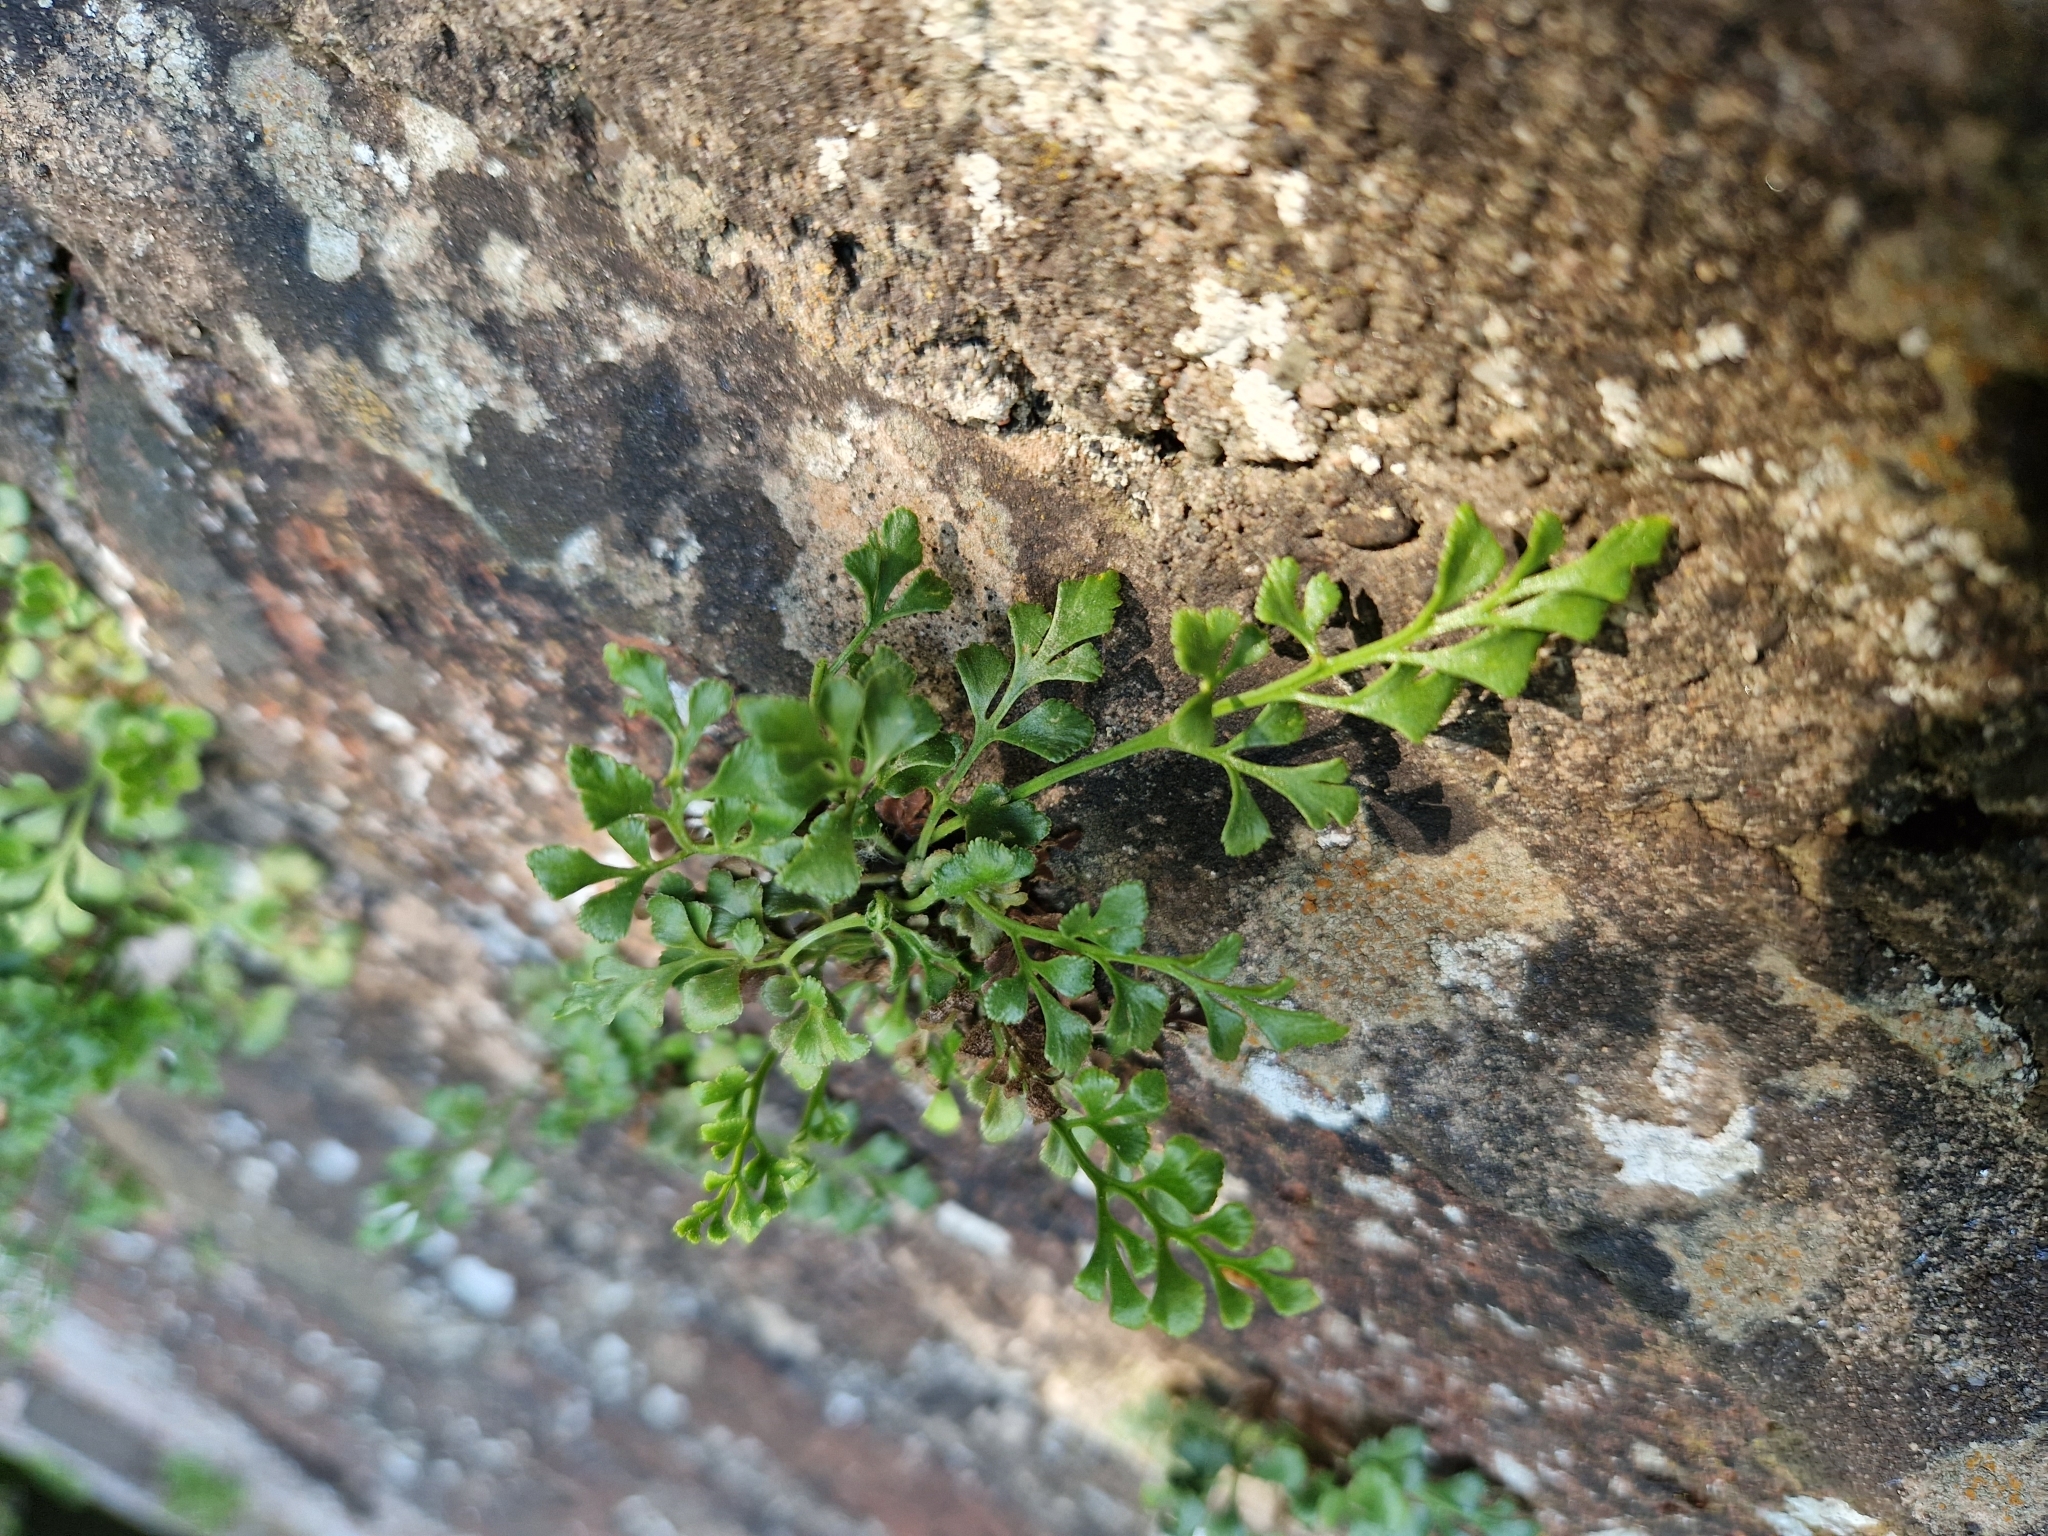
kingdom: Plantae
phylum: Tracheophyta
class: Polypodiopsida
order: Polypodiales
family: Aspleniaceae
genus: Asplenium
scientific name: Asplenium ruta-muraria
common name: Wall-rue
